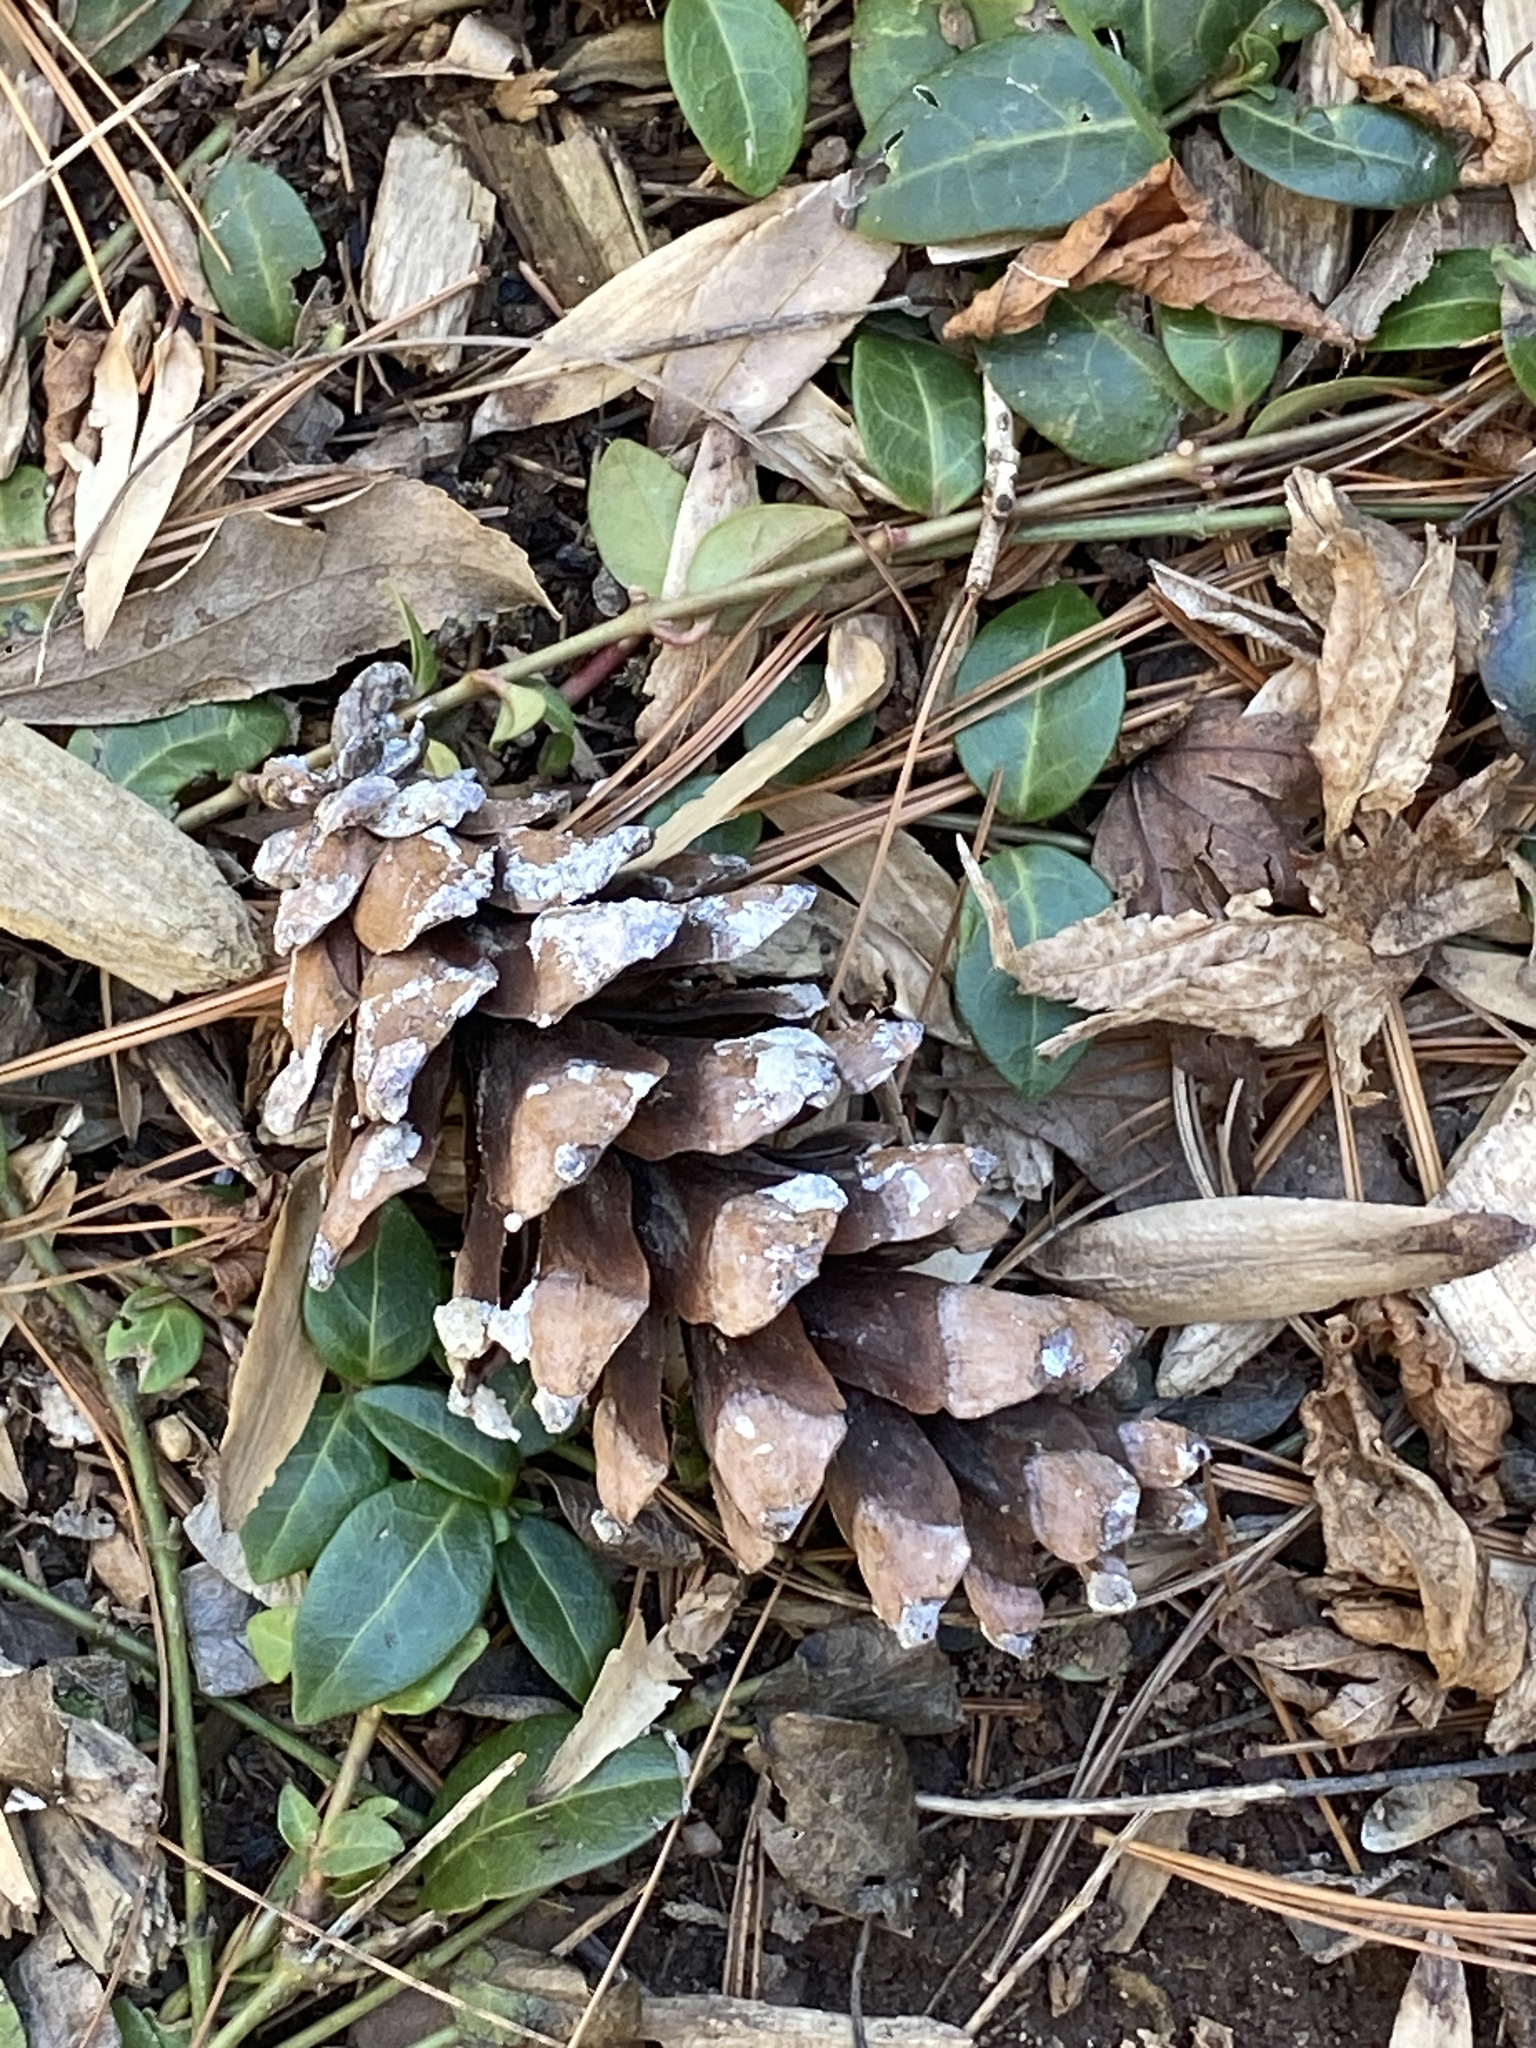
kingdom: Plantae
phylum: Tracheophyta
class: Pinopsida
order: Pinales
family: Pinaceae
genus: Pinus
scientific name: Pinus strobus
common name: Weymouth pine
